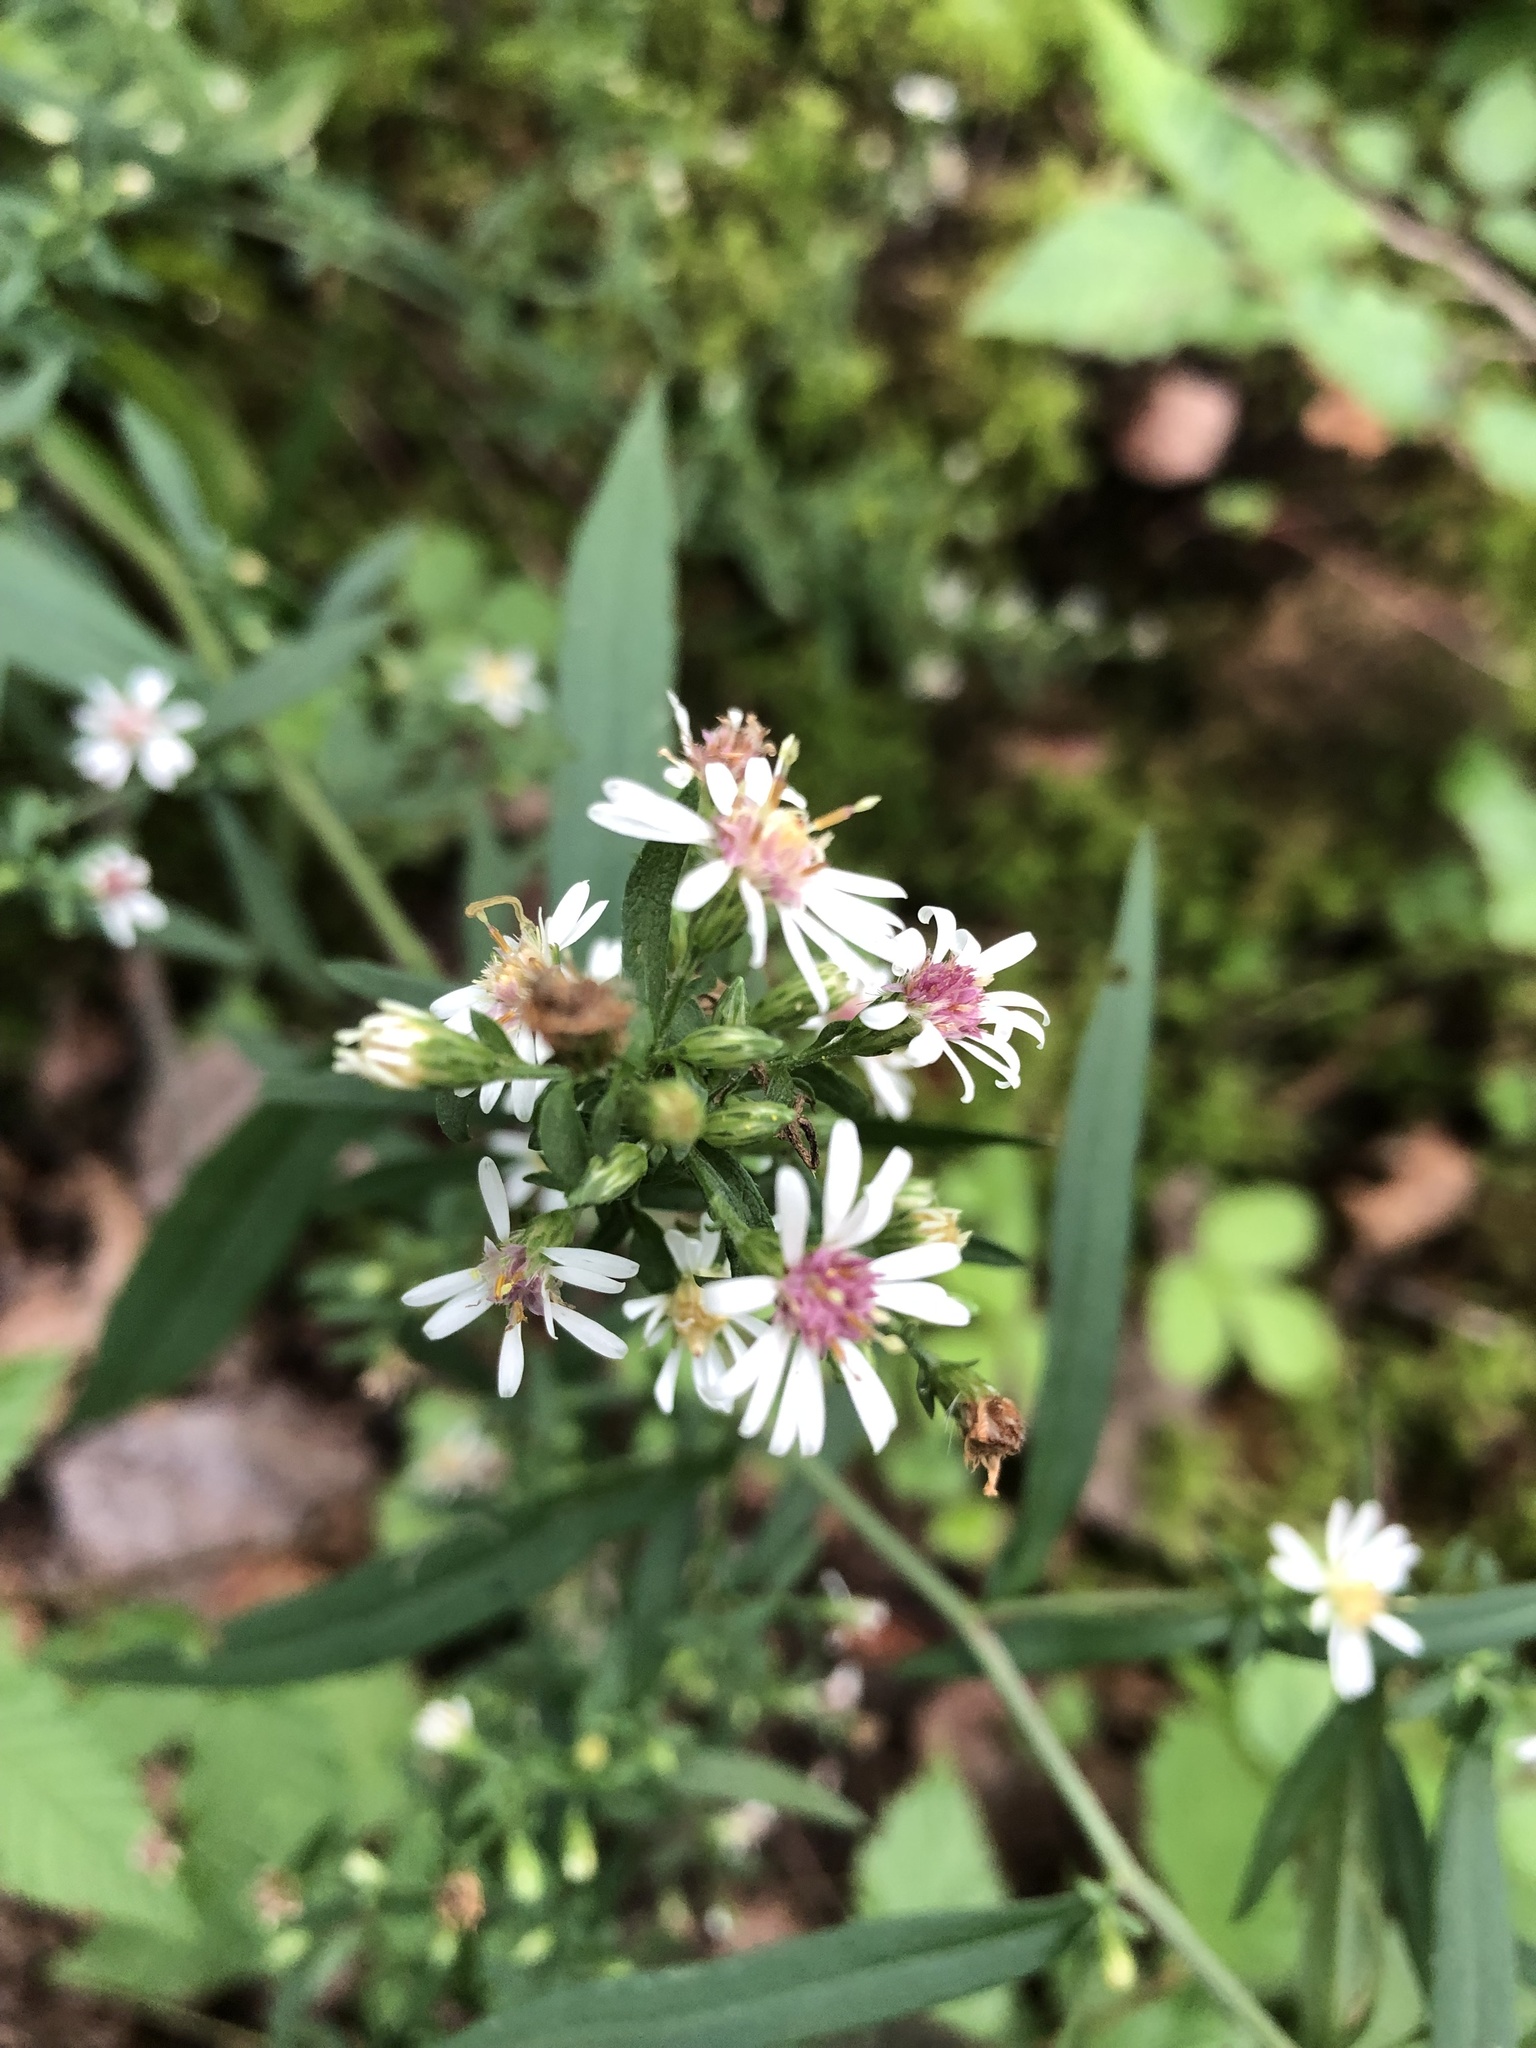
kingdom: Plantae
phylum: Tracheophyta
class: Magnoliopsida
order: Asterales
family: Asteraceae
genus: Symphyotrichum
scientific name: Symphyotrichum lateriflorum
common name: Calico aster
